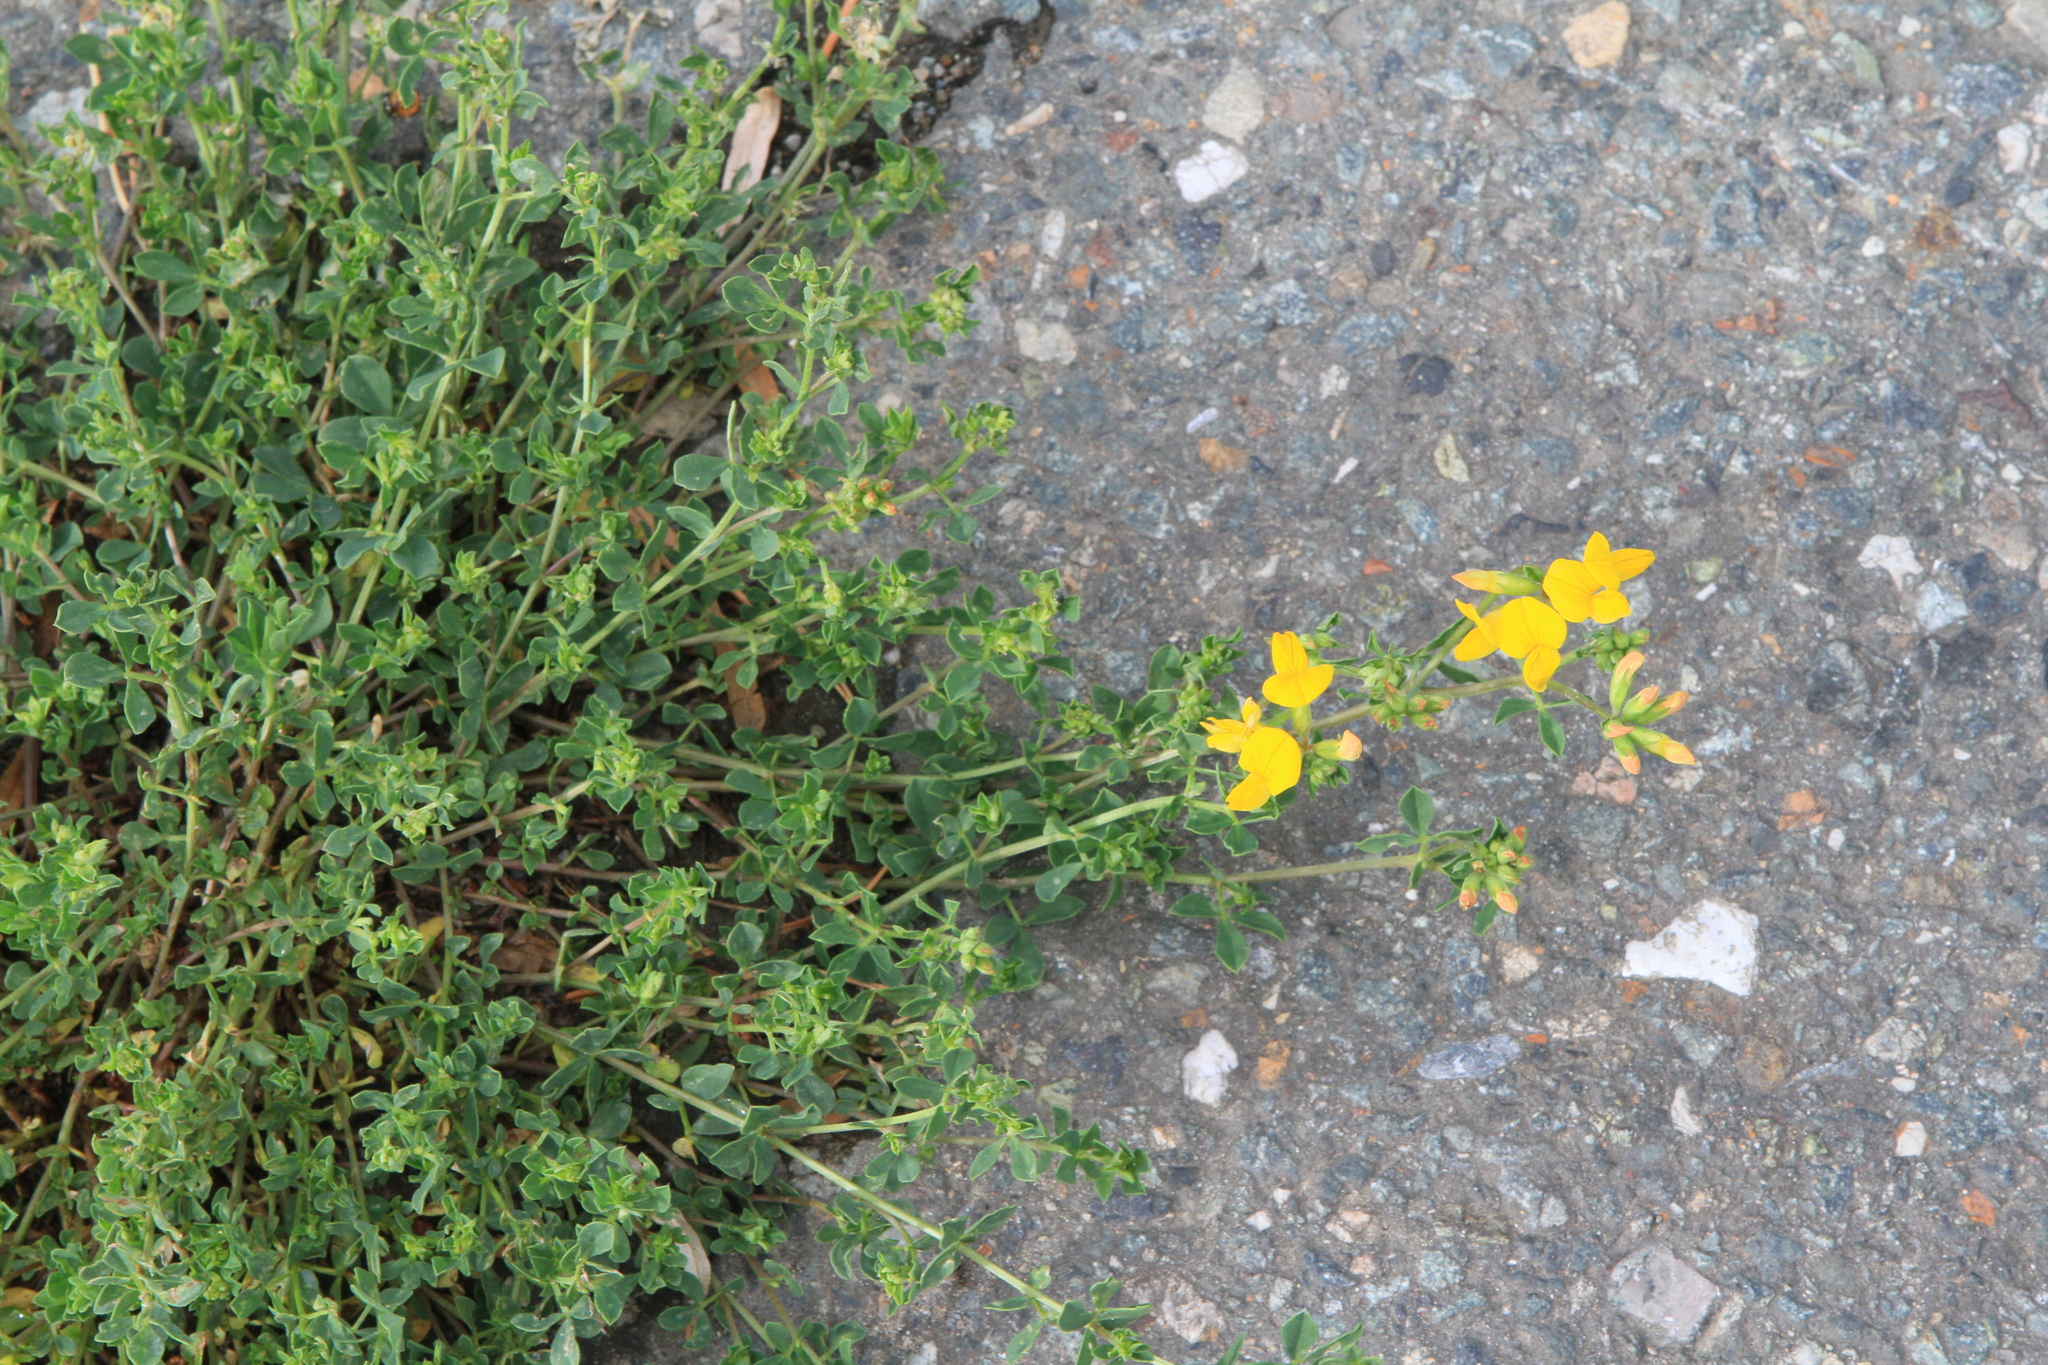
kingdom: Plantae
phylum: Tracheophyta
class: Magnoliopsida
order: Fabales
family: Fabaceae
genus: Lotus
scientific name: Lotus corniculatus
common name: Common bird's-foot-trefoil
